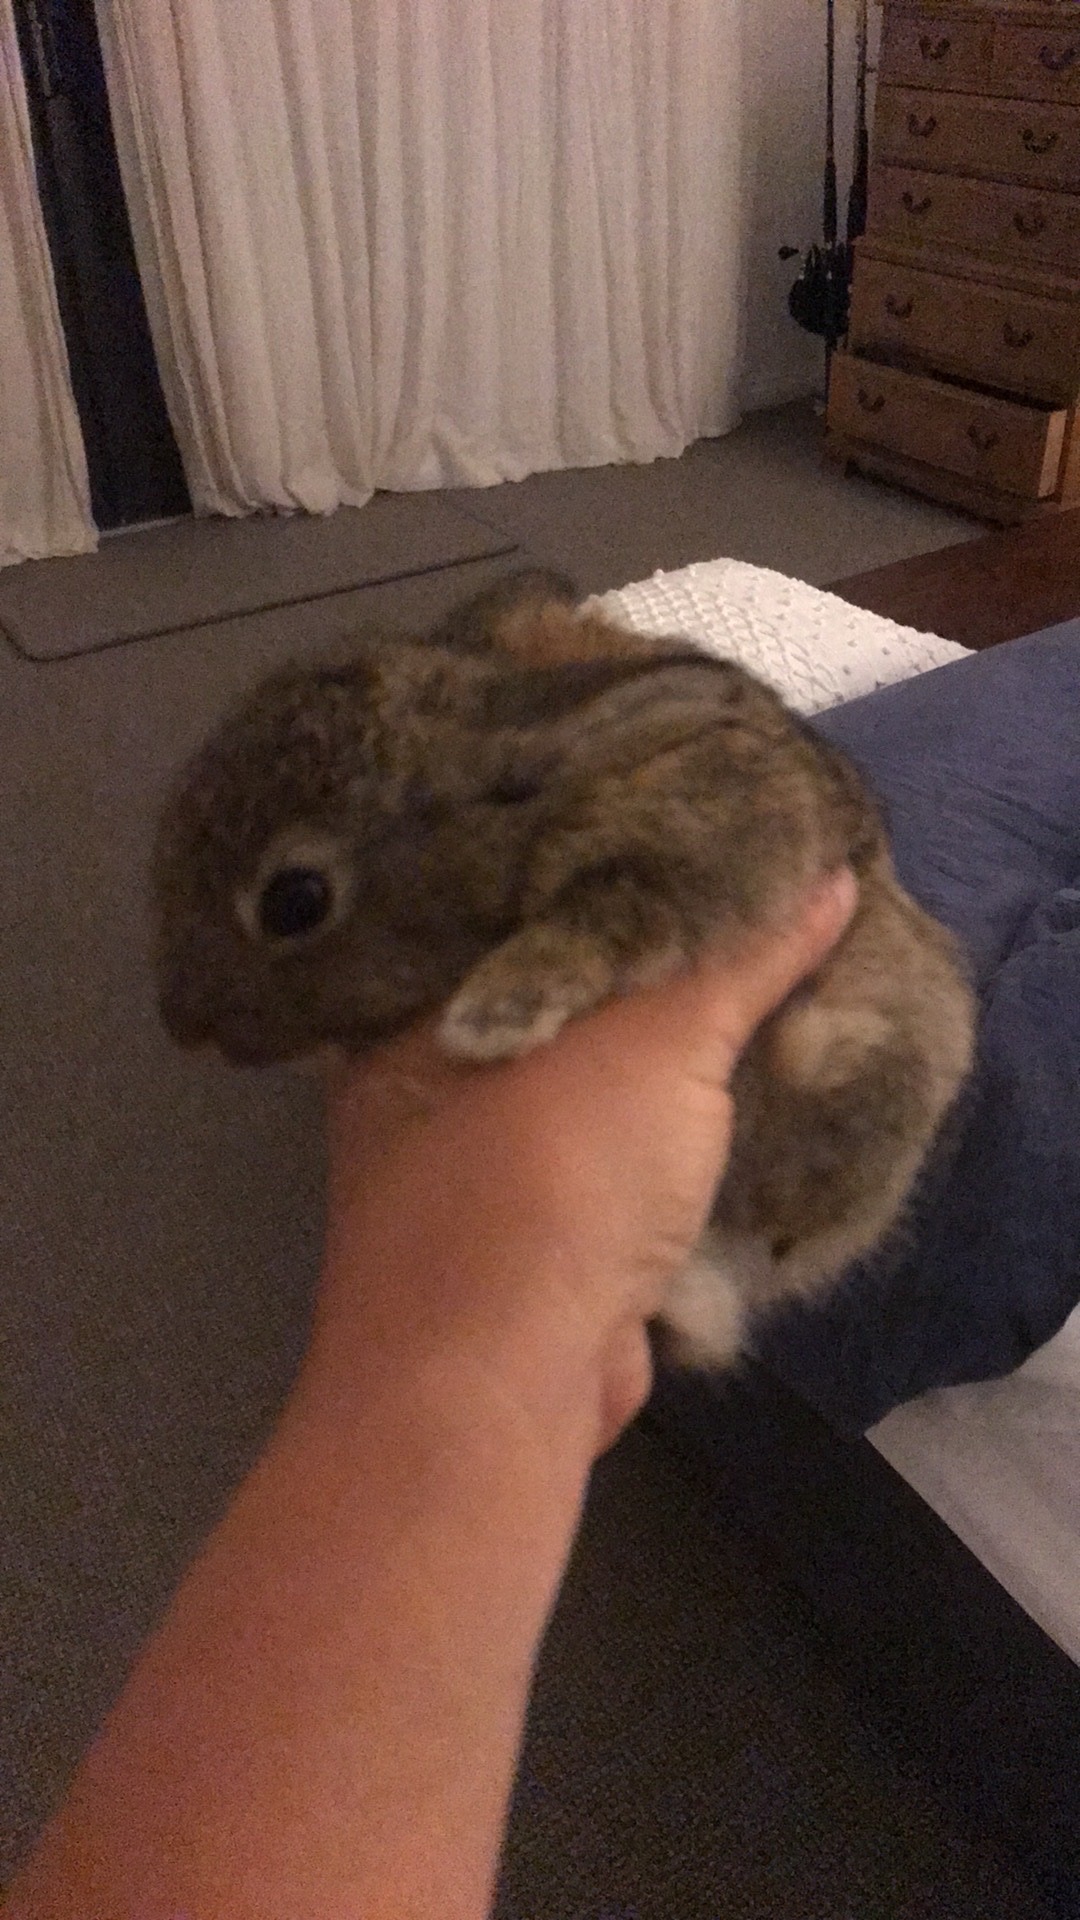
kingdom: Animalia
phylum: Chordata
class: Mammalia
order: Lagomorpha
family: Leporidae
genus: Oryctolagus
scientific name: Oryctolagus cuniculus
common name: European rabbit
